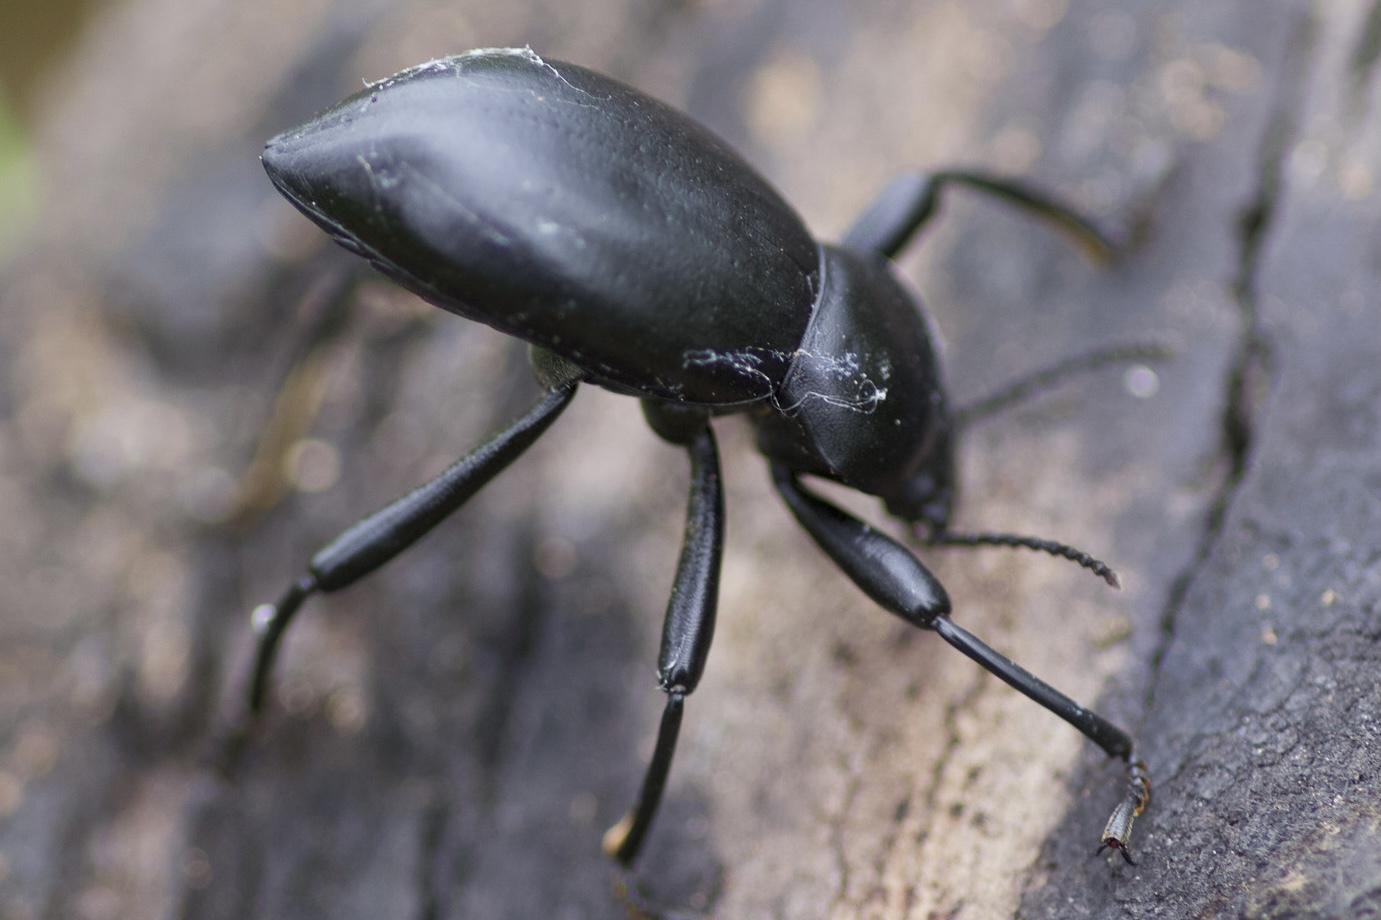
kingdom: Animalia
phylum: Arthropoda
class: Insecta
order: Coleoptera
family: Tenebrionidae
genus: Coelocnemis
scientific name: Coelocnemis magna
